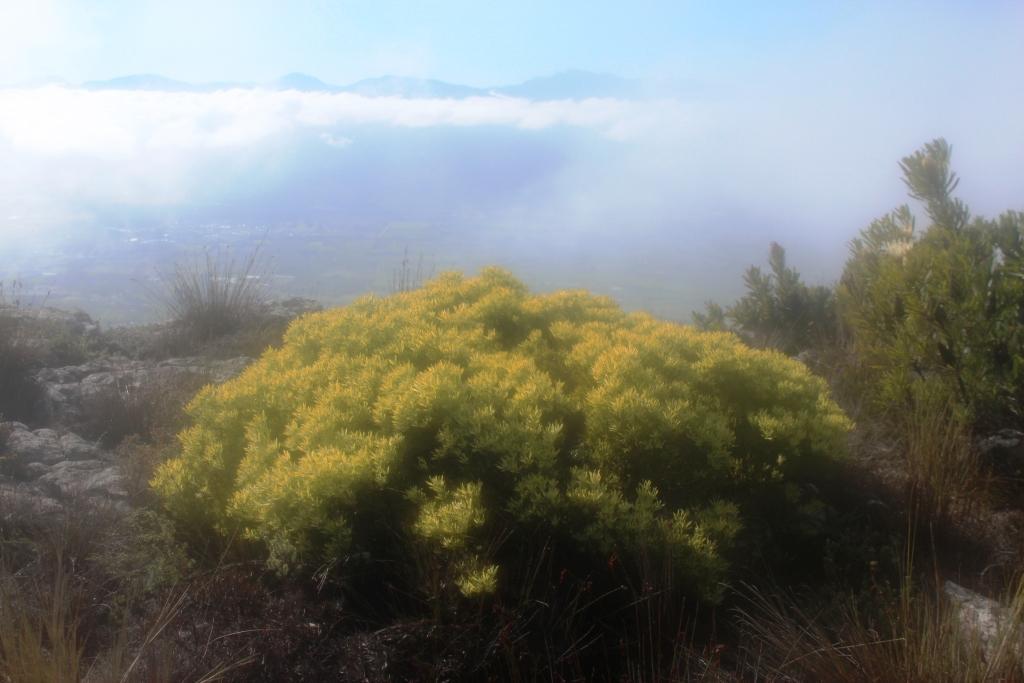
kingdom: Plantae
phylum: Tracheophyta
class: Magnoliopsida
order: Proteales
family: Proteaceae
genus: Leucadendron
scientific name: Leucadendron salignum
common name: Common sunshine conebush
